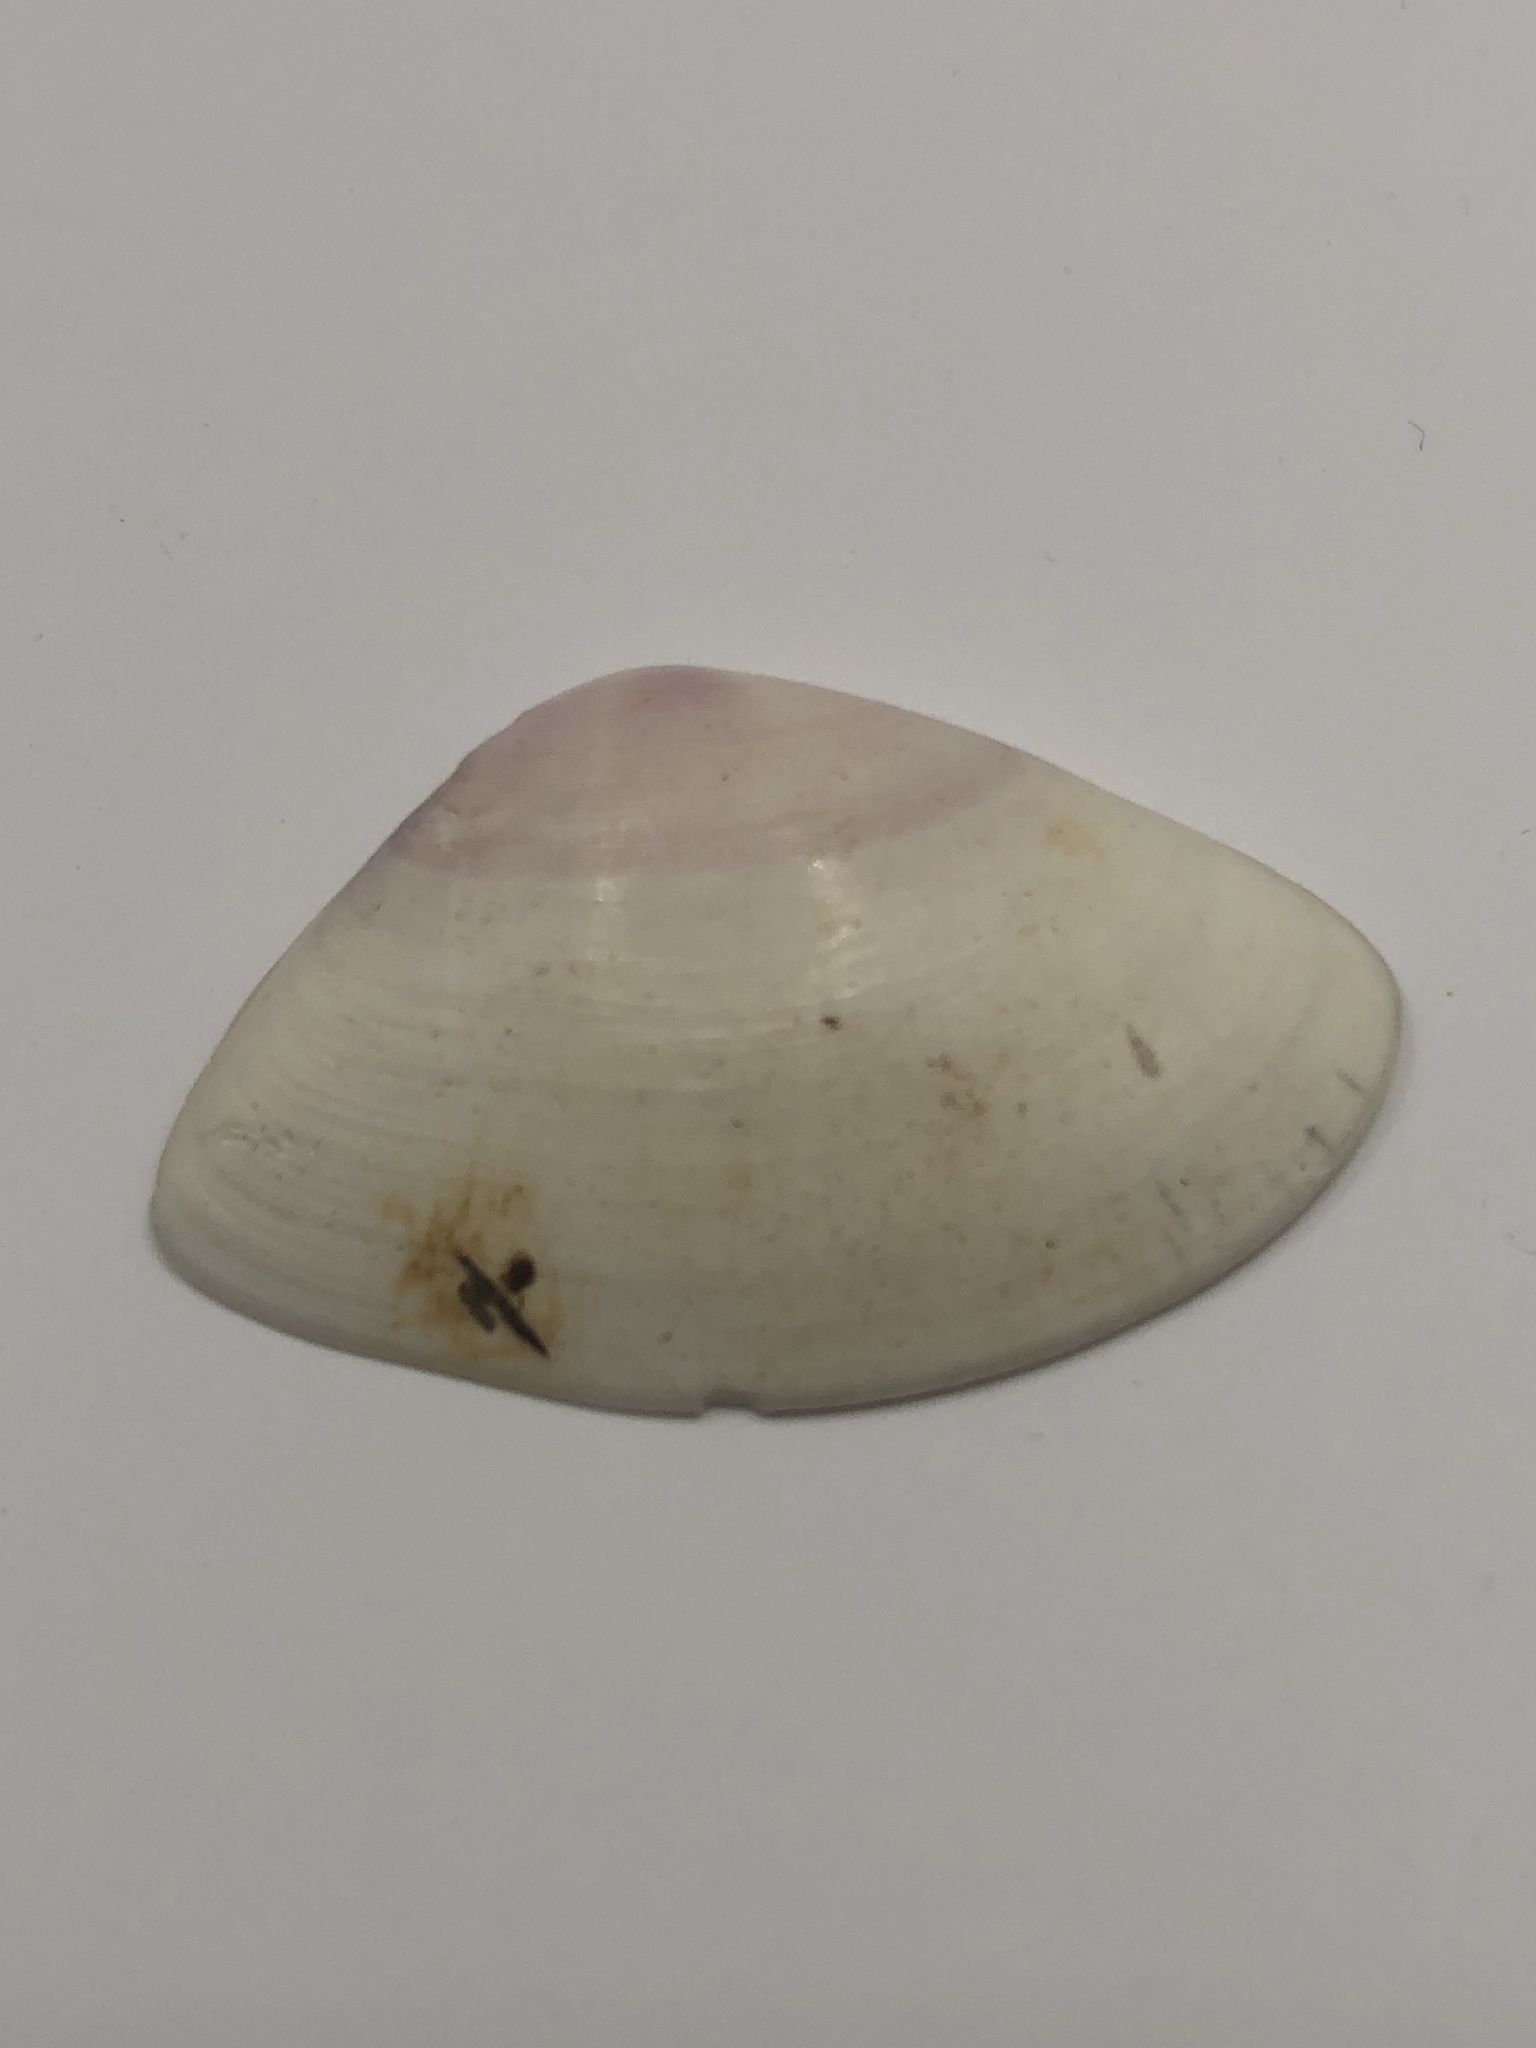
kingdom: Animalia
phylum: Mollusca
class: Bivalvia
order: Cardiida
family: Donacidae
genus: Iphigenia
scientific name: Iphigenia brasiliensis
